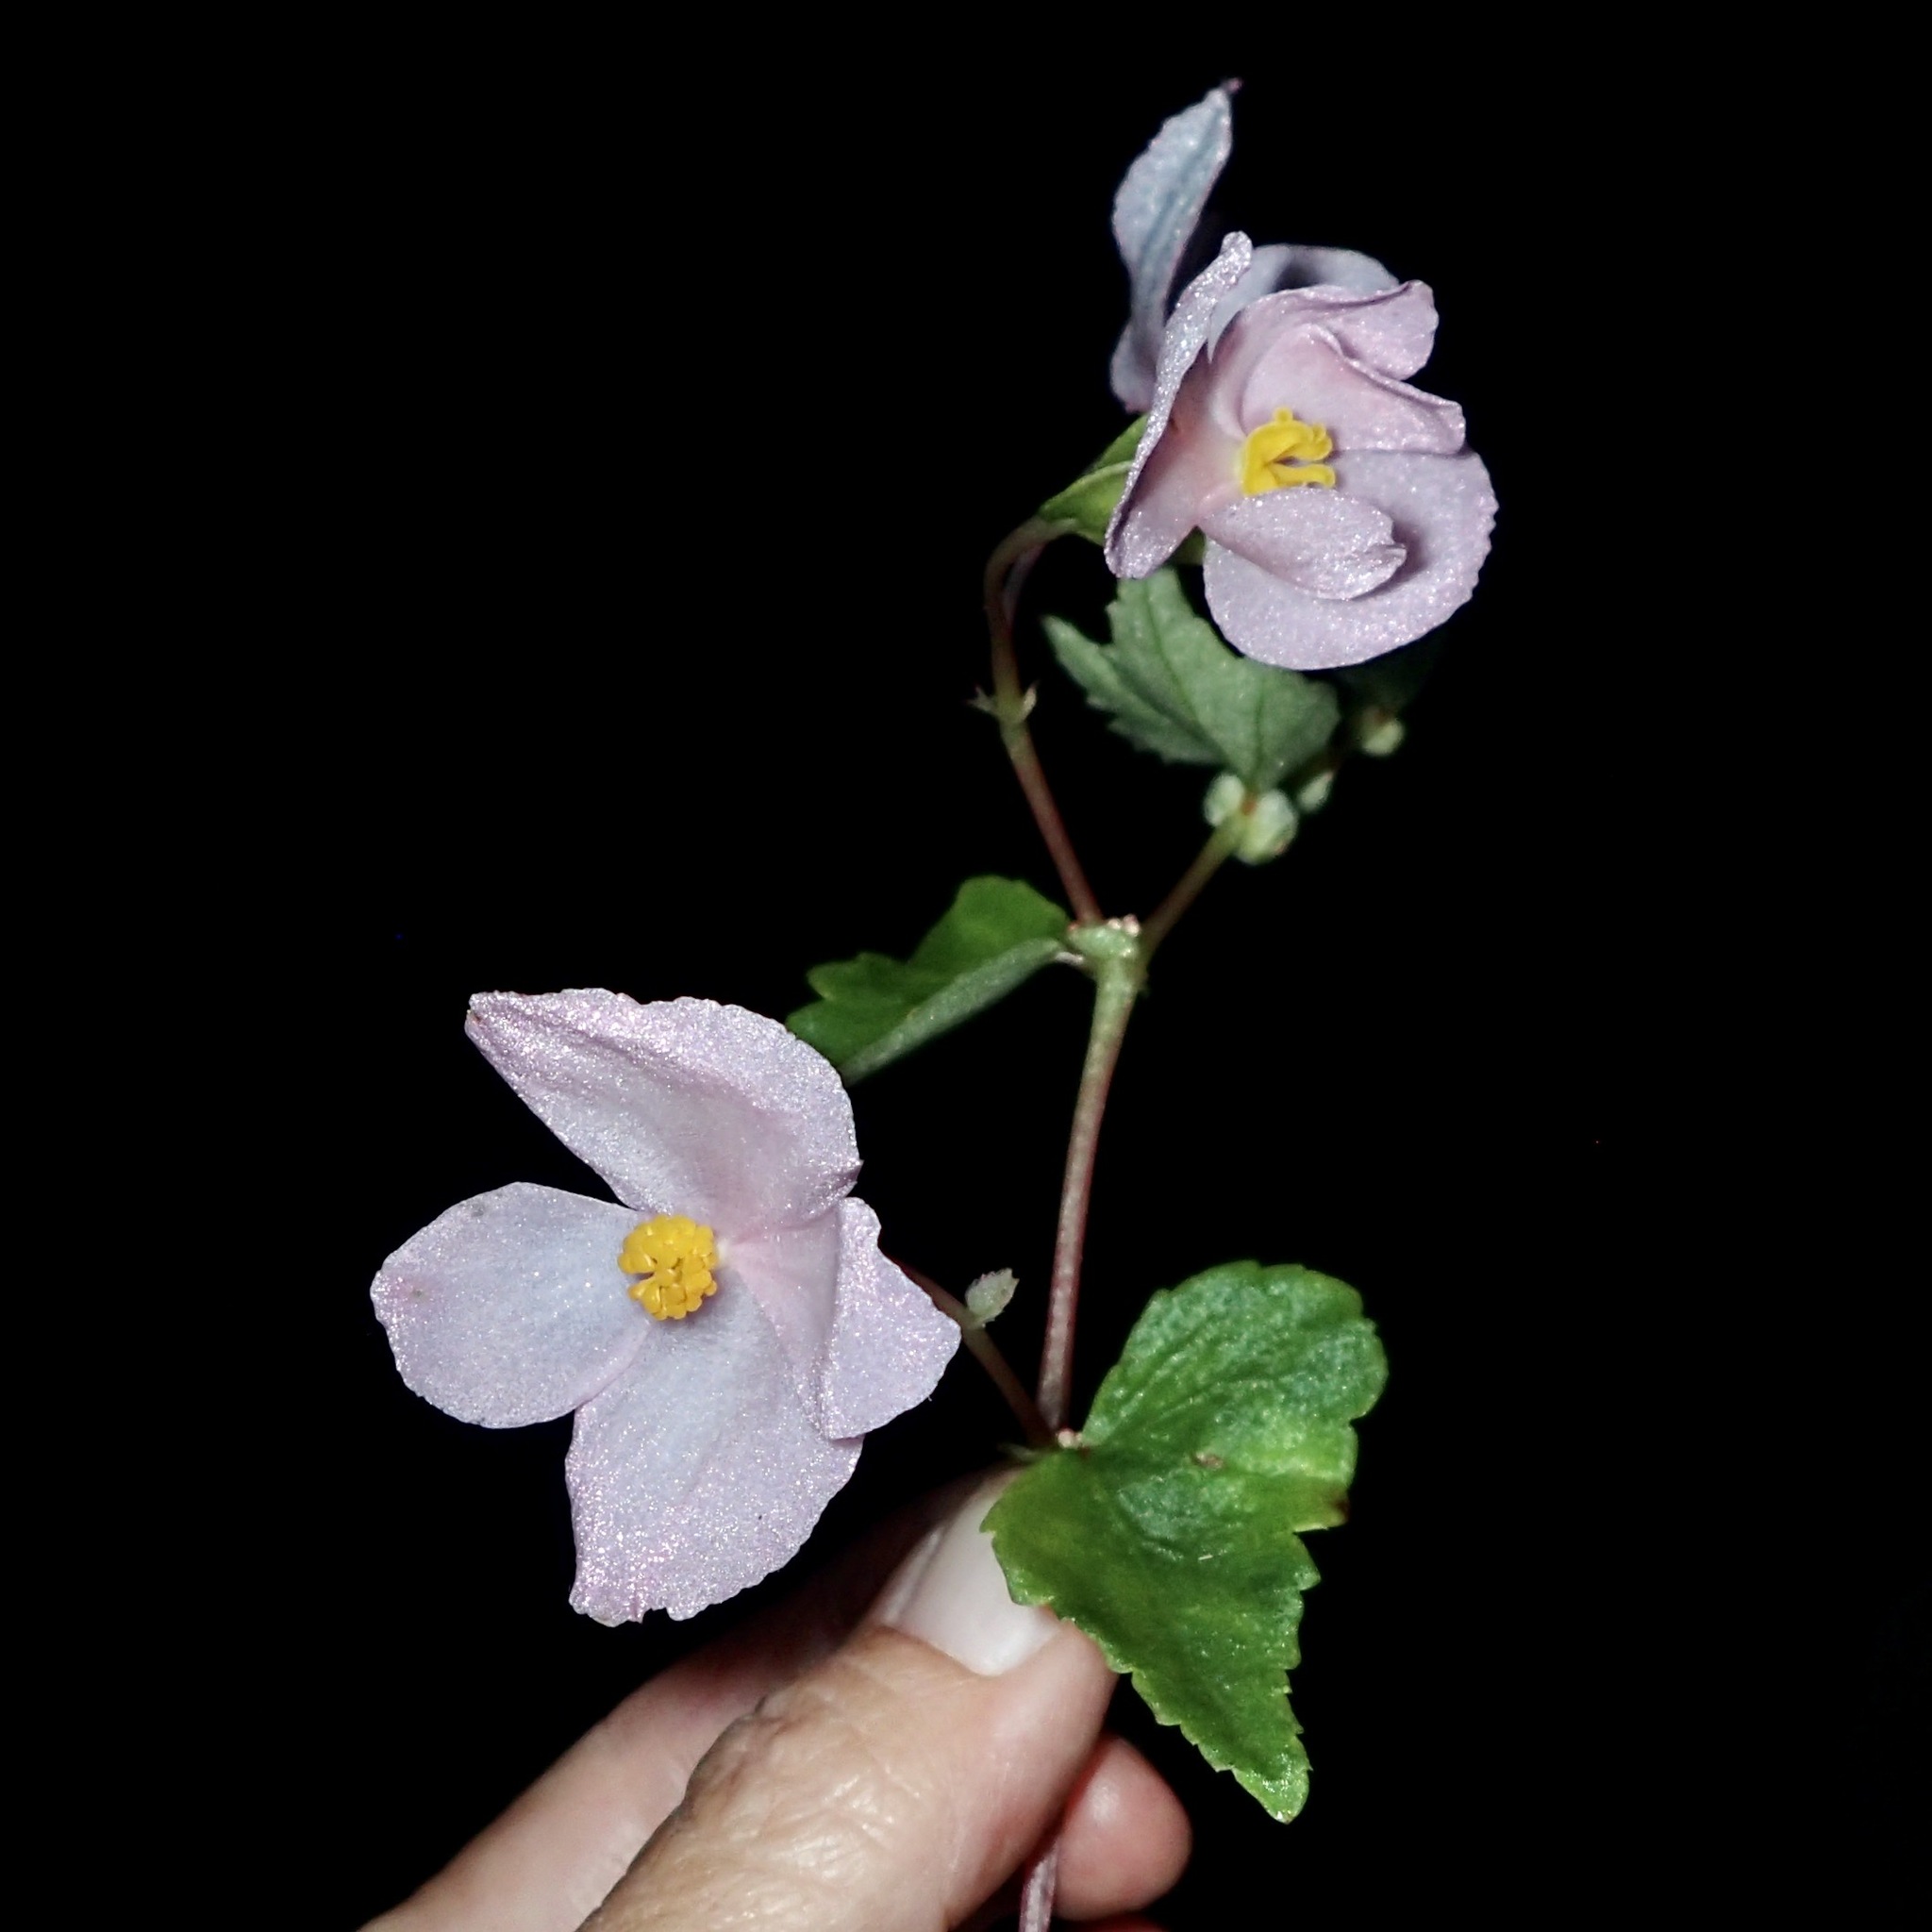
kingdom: Plantae
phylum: Tracheophyta
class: Magnoliopsida
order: Cucurbitales
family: Begoniaceae
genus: Begonia
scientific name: Begonia gracilis
